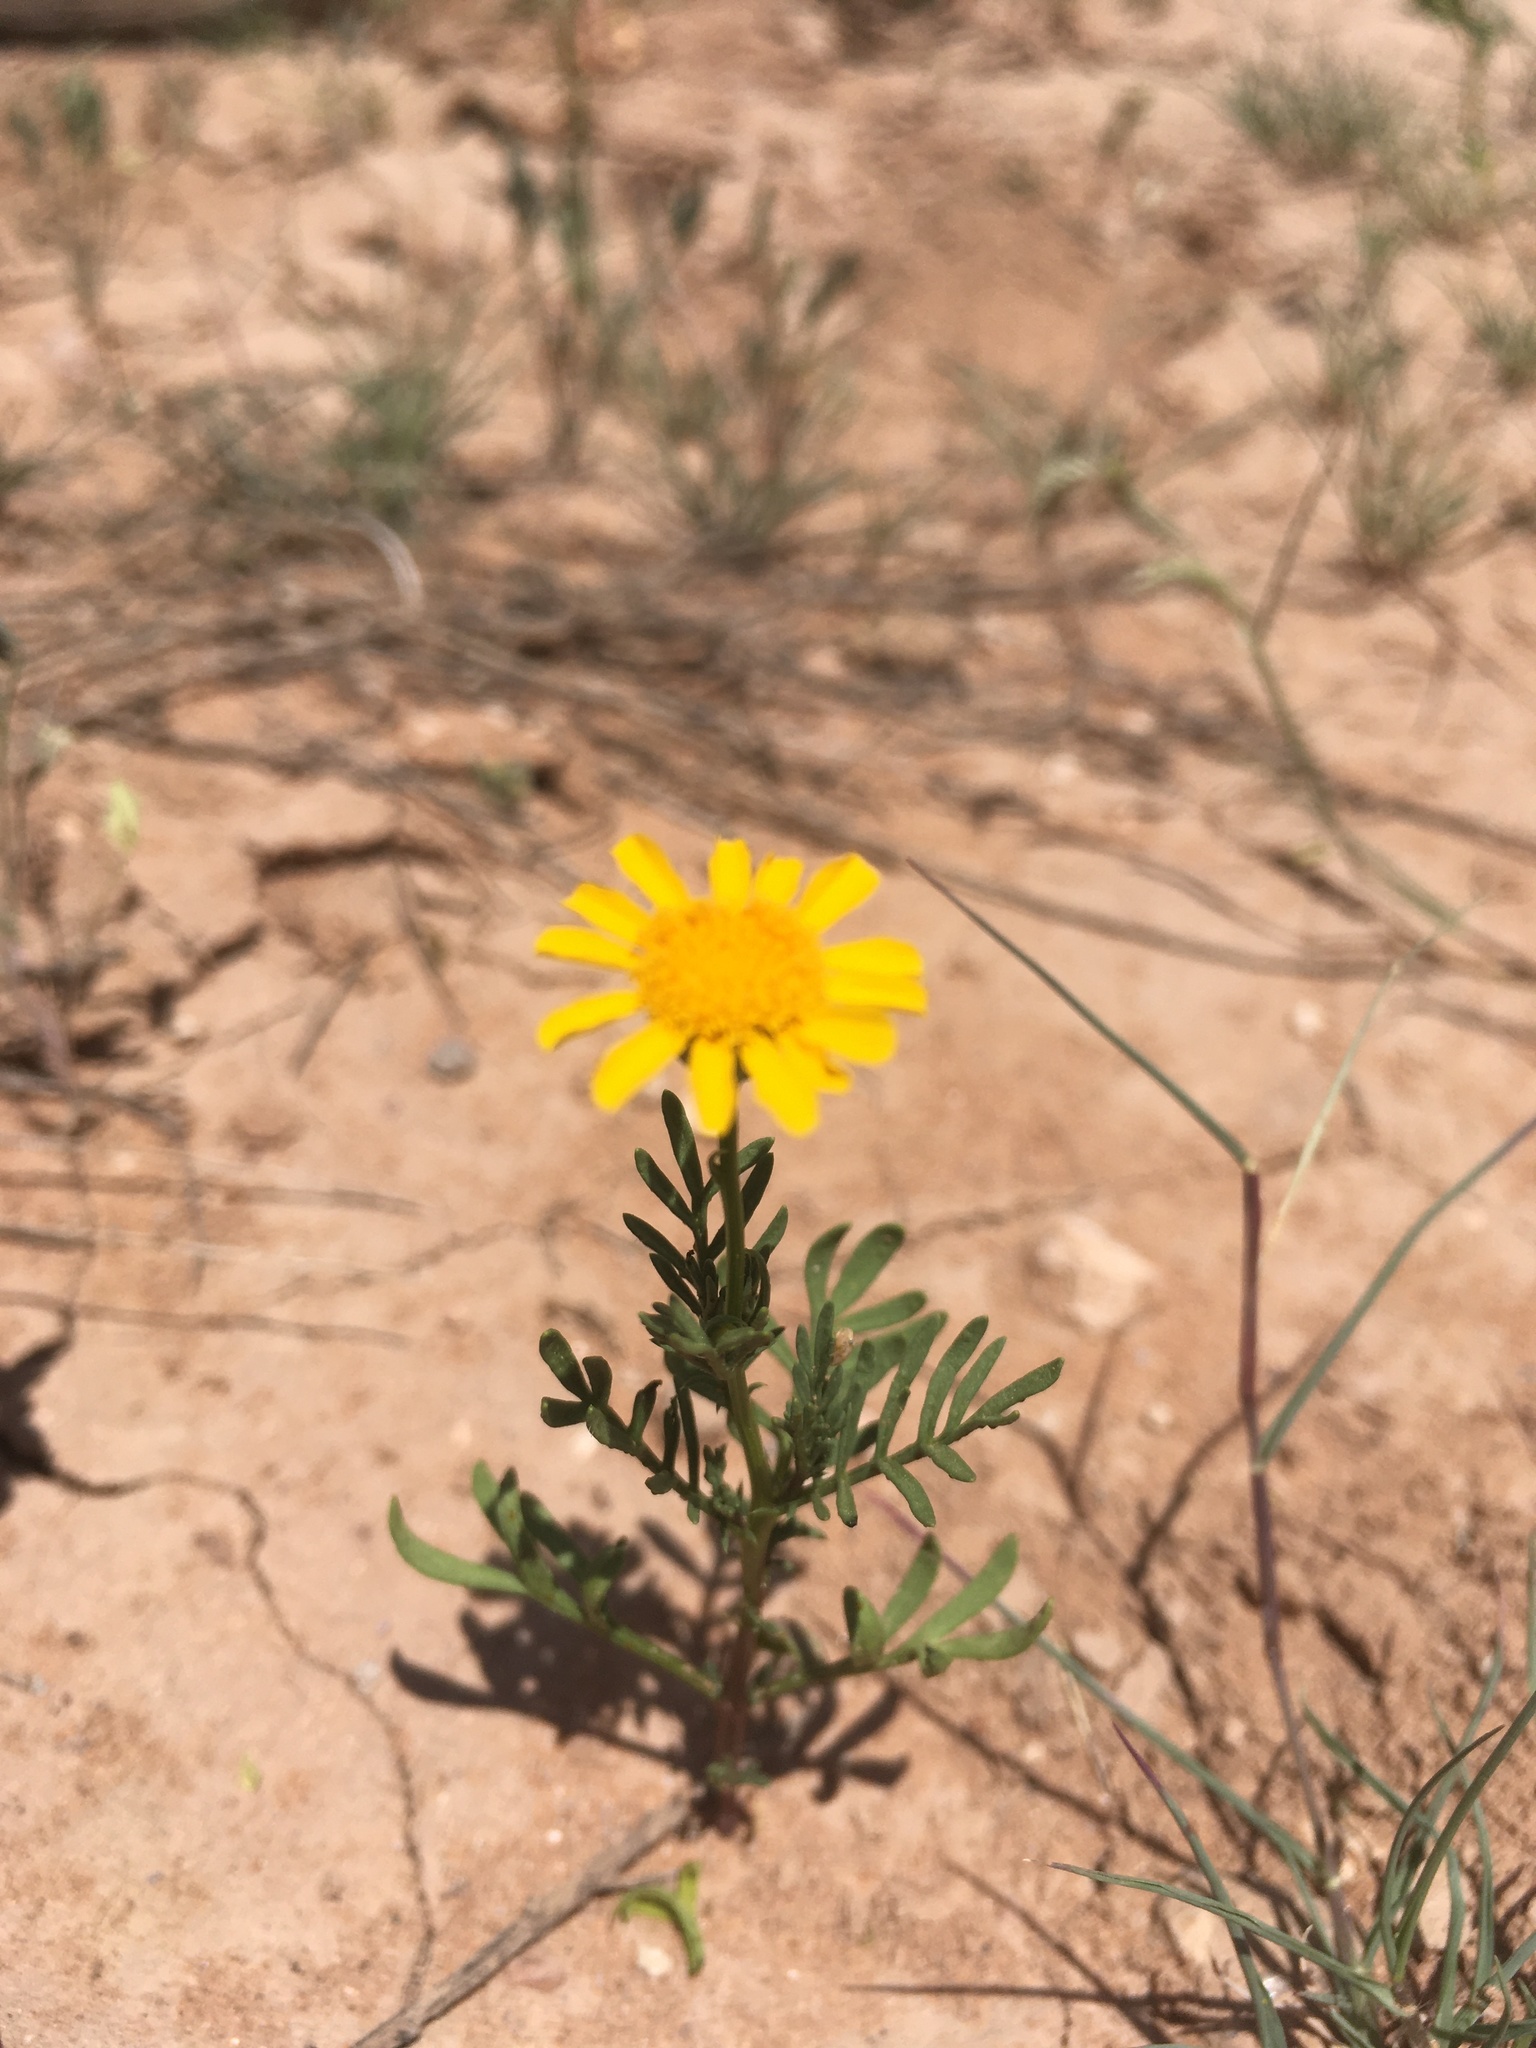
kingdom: Plantae
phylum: Tracheophyta
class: Magnoliopsida
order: Asterales
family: Asteraceae
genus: Thymophylla
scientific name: Thymophylla aurea
